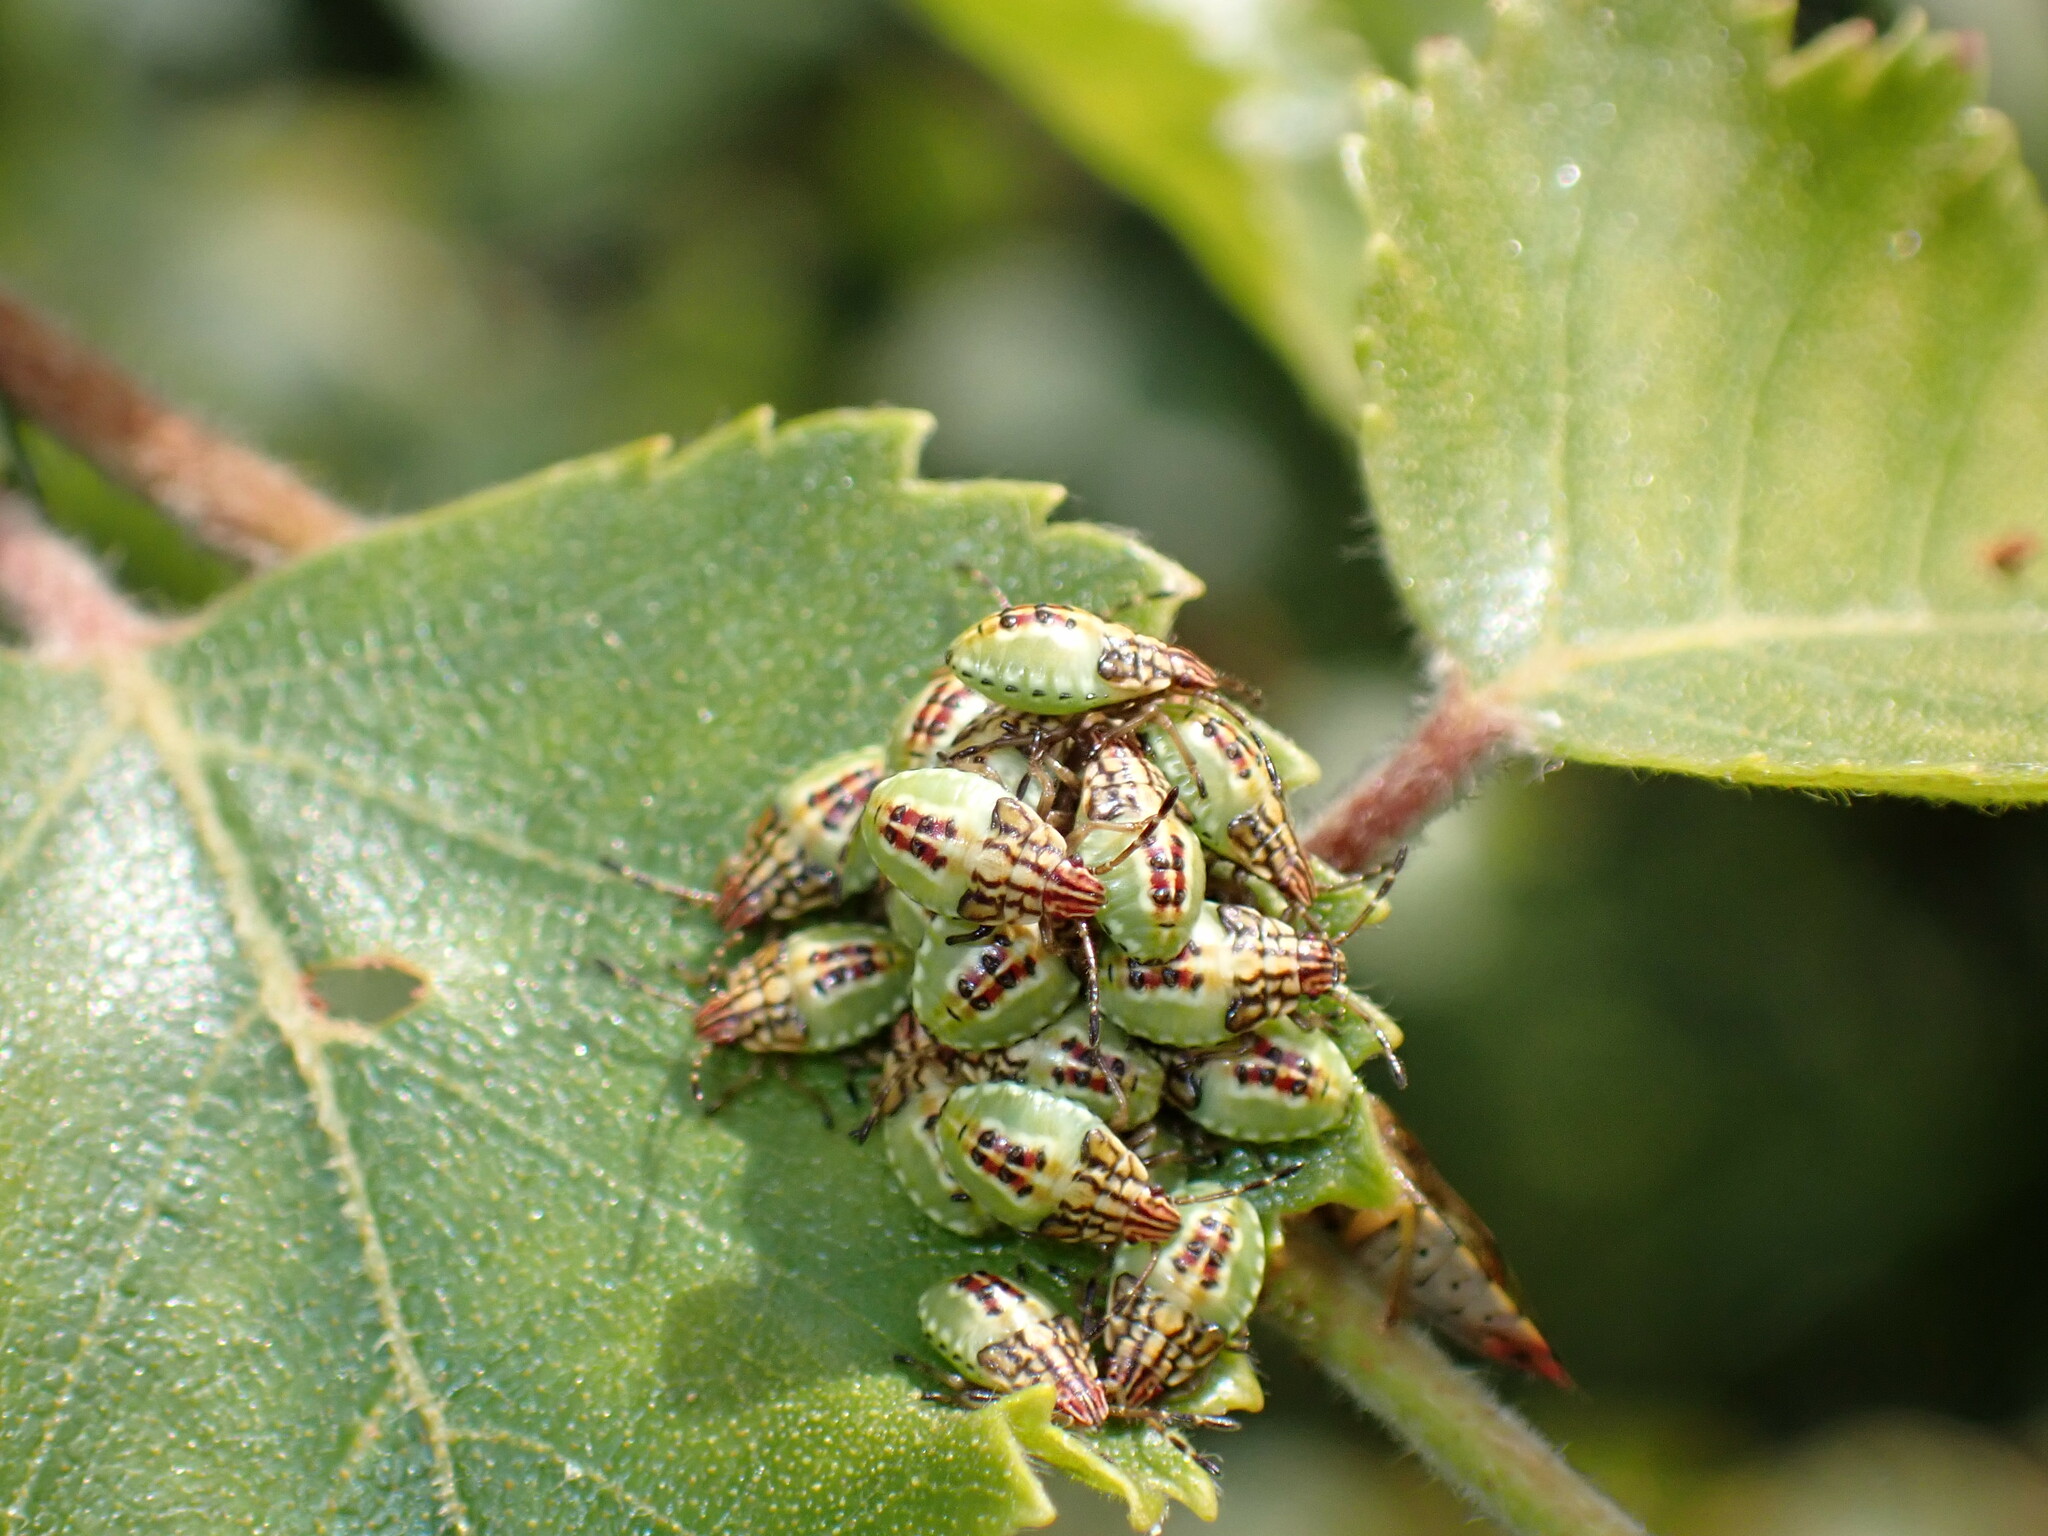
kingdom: Animalia
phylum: Arthropoda
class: Insecta
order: Hemiptera
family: Acanthosomatidae
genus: Elasmucha
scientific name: Elasmucha grisea
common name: Parent bug
